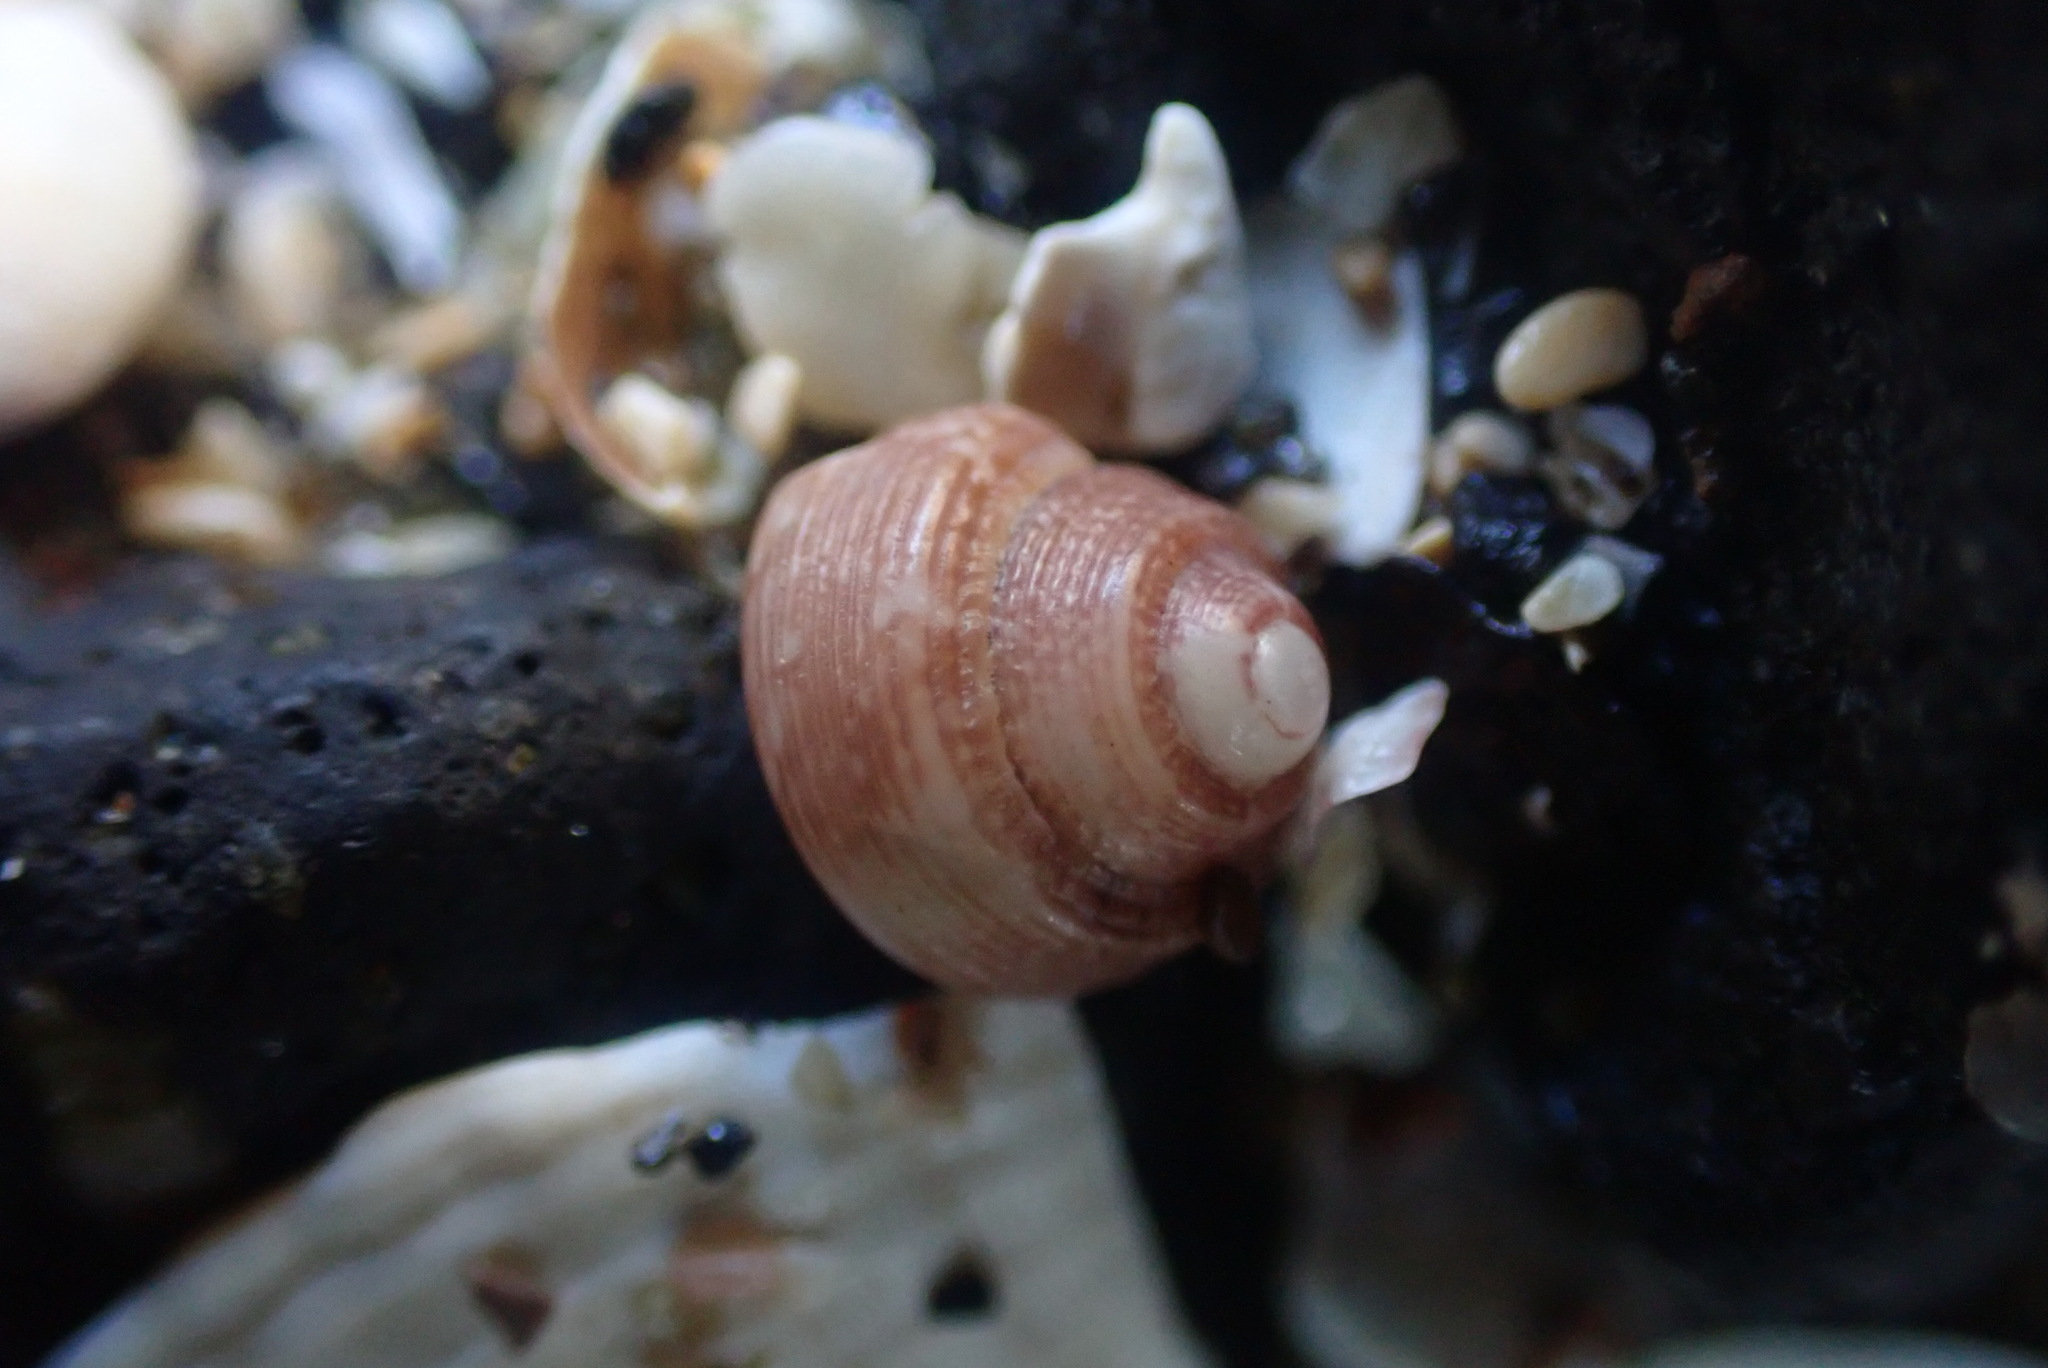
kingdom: Animalia
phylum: Mollusca
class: Gastropoda
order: Trochida
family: Trochidae
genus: Coelotrochus
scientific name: Coelotrochus oppressus
